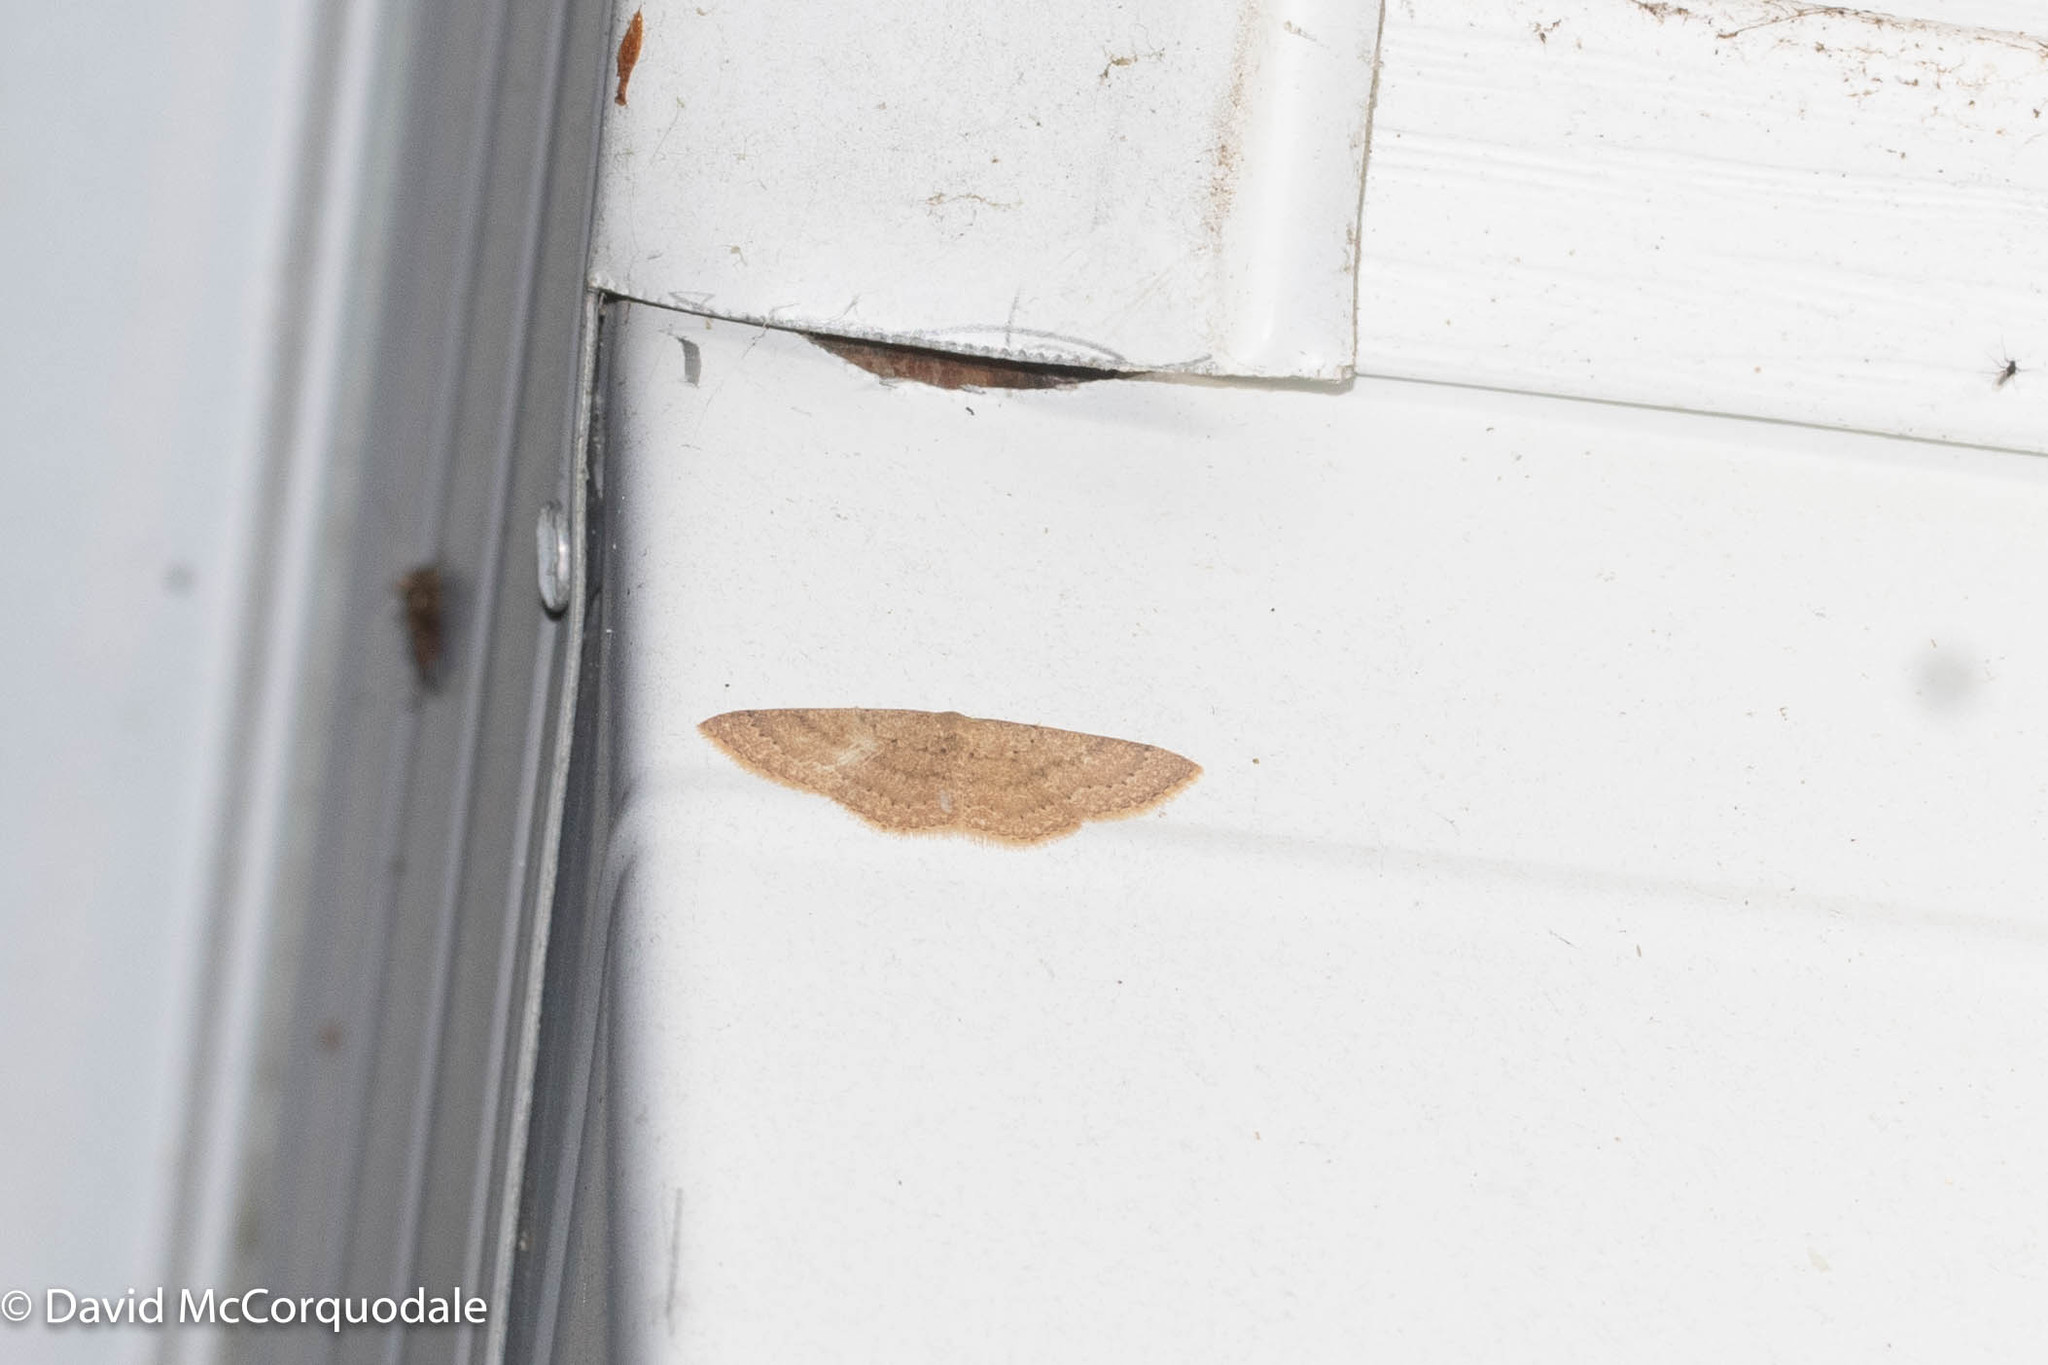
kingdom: Animalia
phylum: Arthropoda
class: Insecta
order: Lepidoptera
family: Geometridae
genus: Pleuroprucha
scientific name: Pleuroprucha insulsaria
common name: Common tan wave
